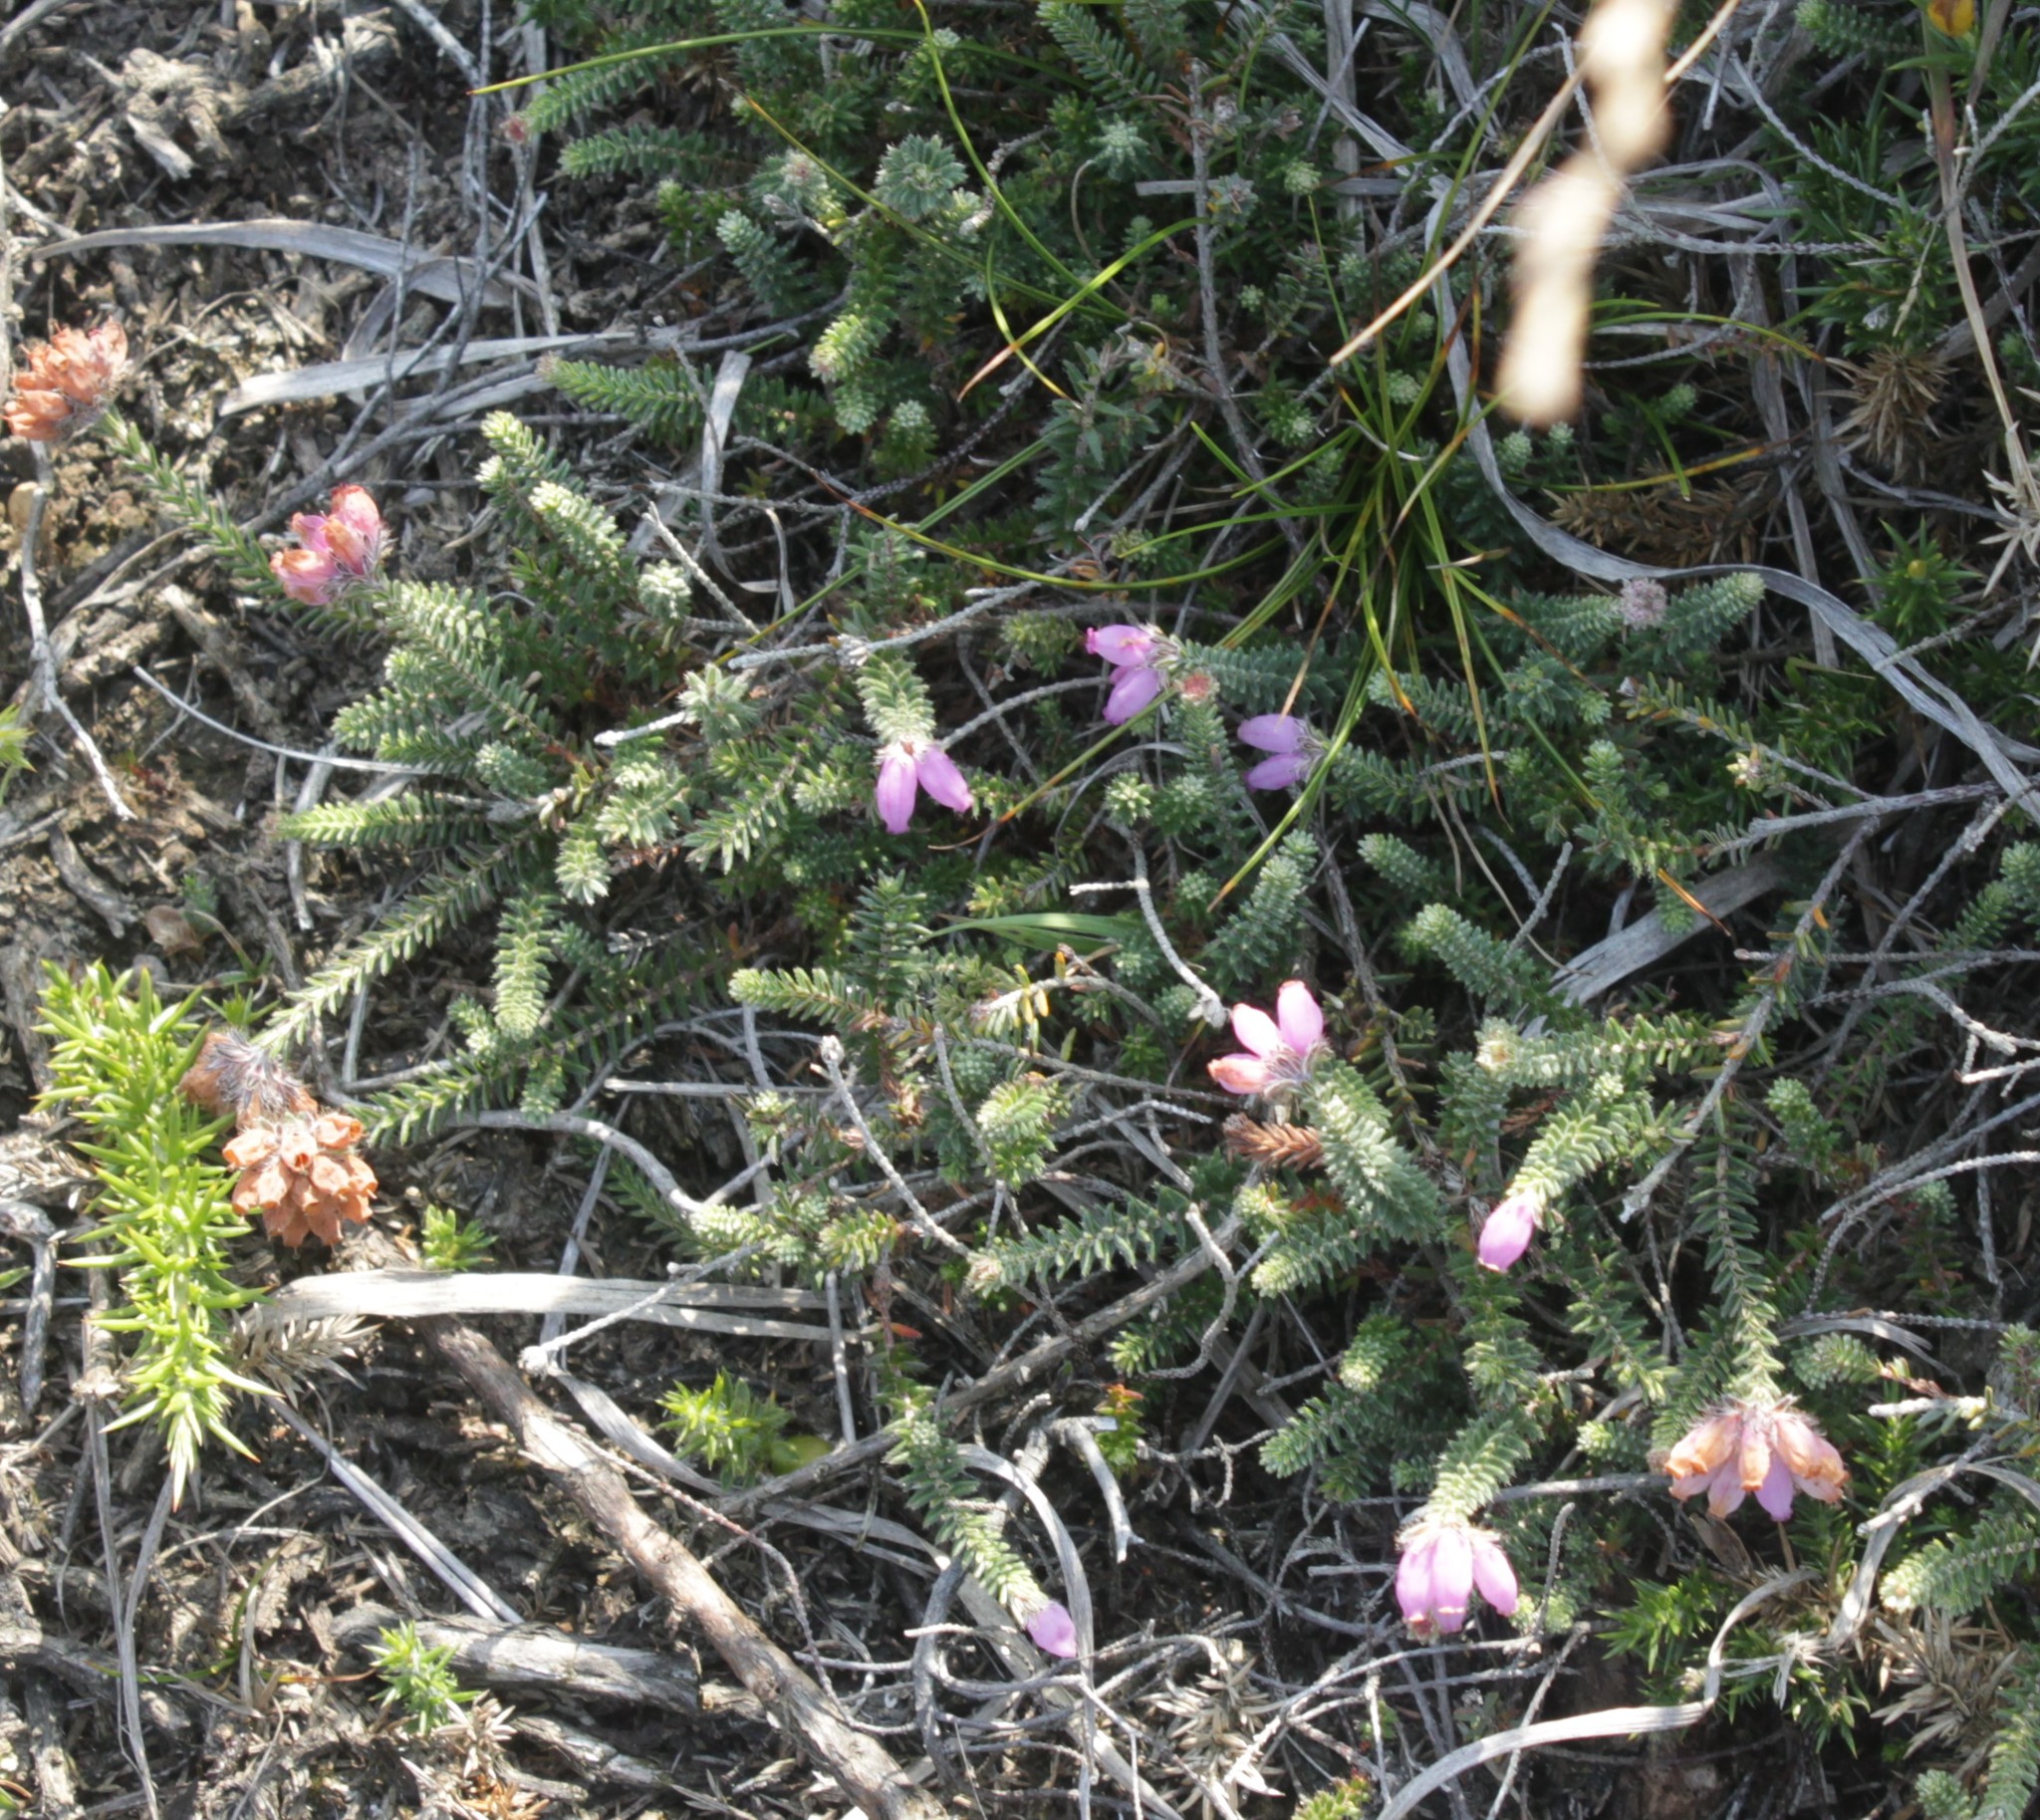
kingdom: Plantae
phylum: Tracheophyta
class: Magnoliopsida
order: Ericales
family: Ericaceae
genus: Erica
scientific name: Erica tetralix
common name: Cross-leaved heath
